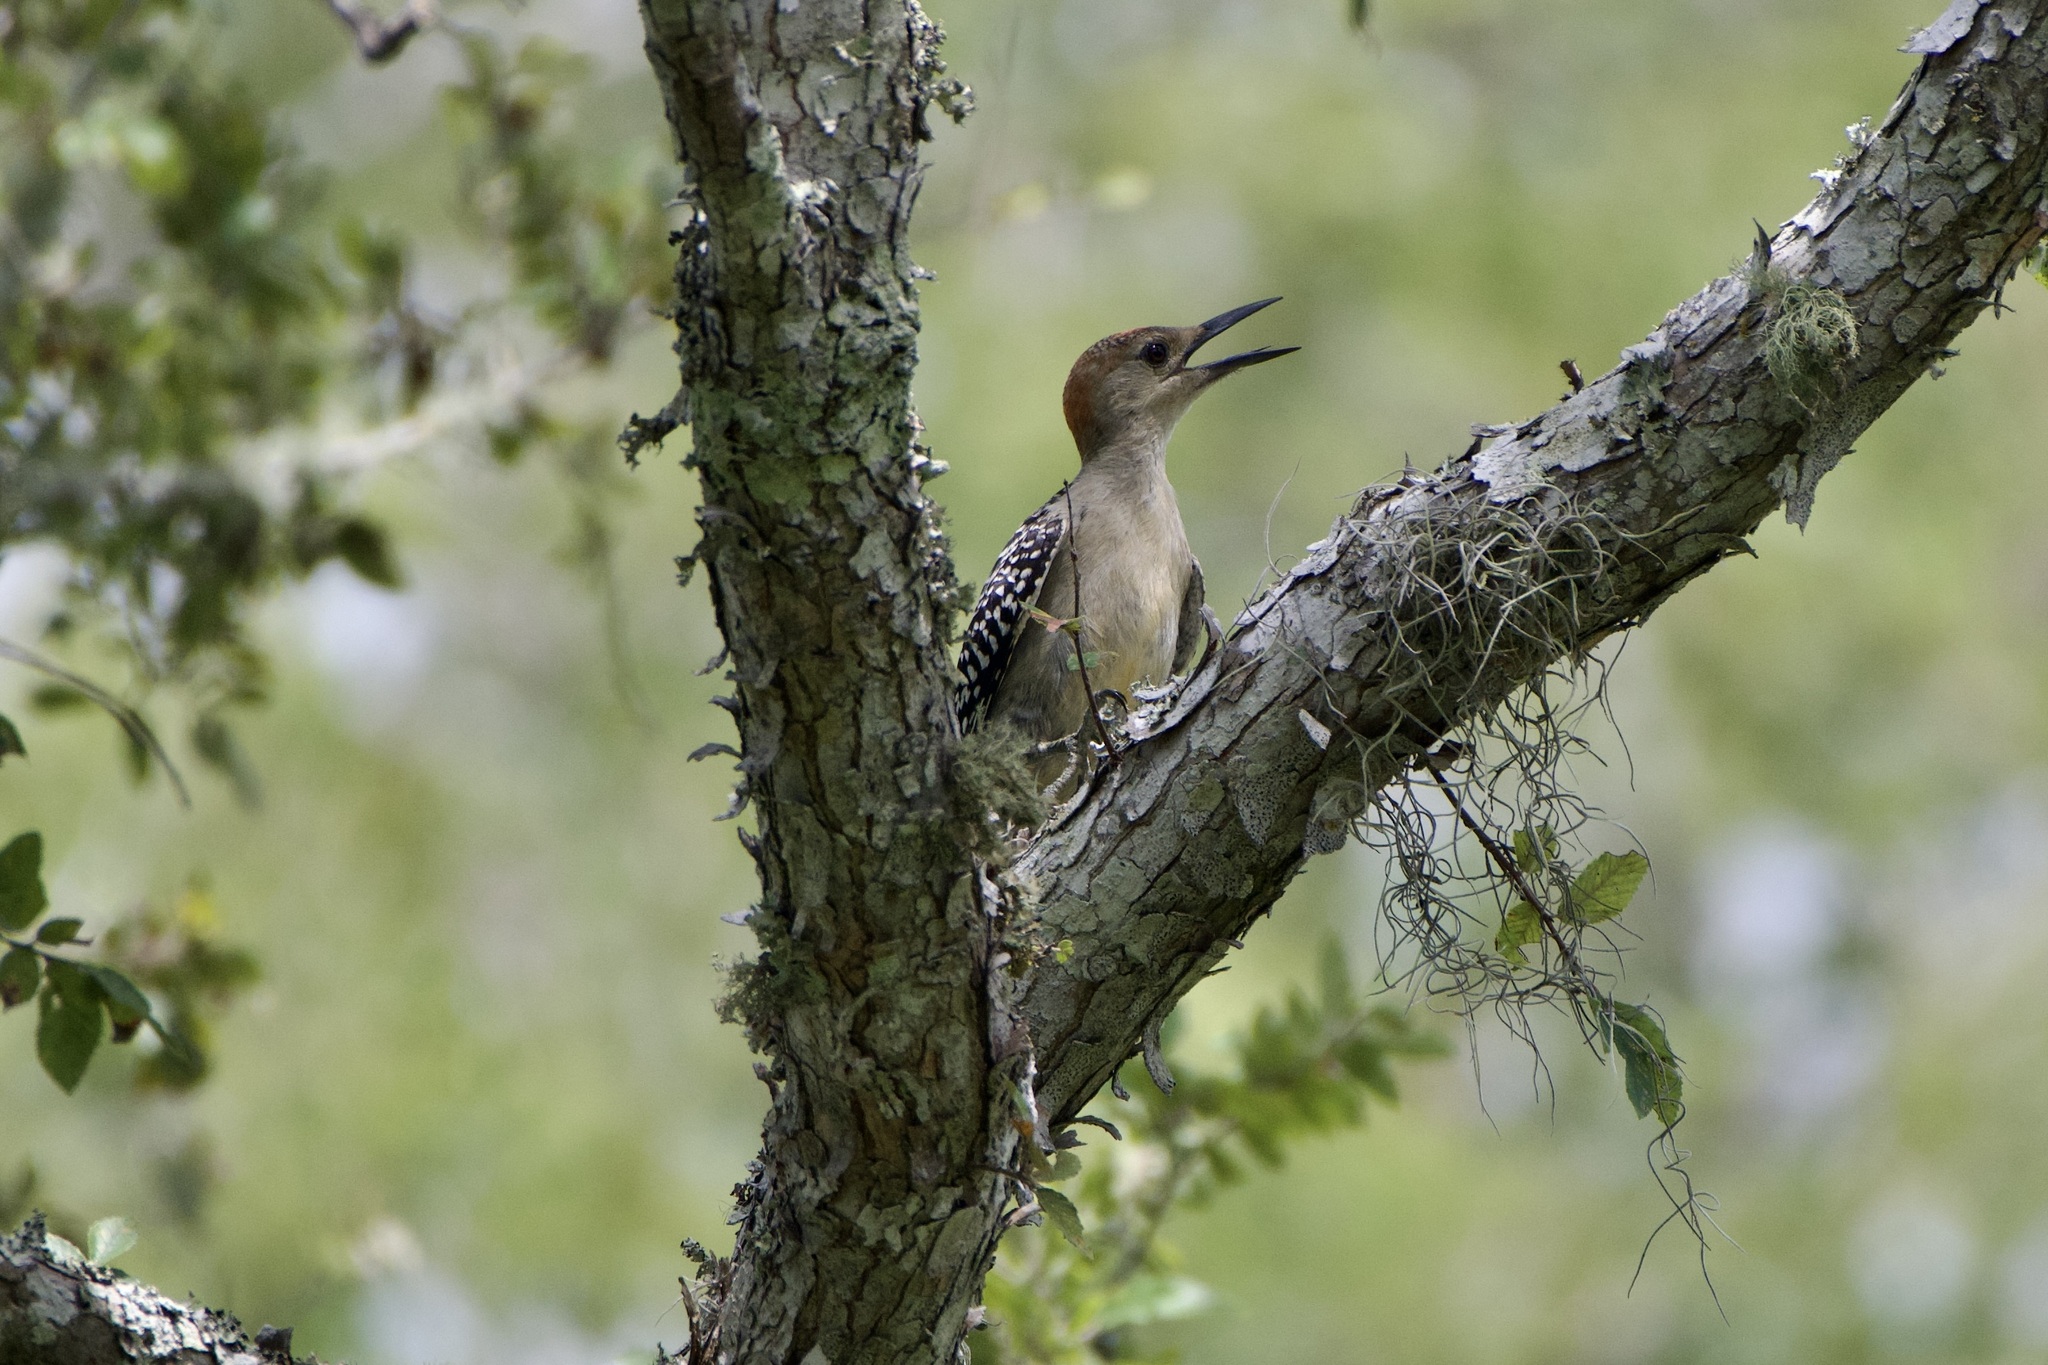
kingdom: Animalia
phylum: Chordata
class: Aves
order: Piciformes
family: Picidae
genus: Melanerpes
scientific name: Melanerpes carolinus
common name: Red-bellied woodpecker
